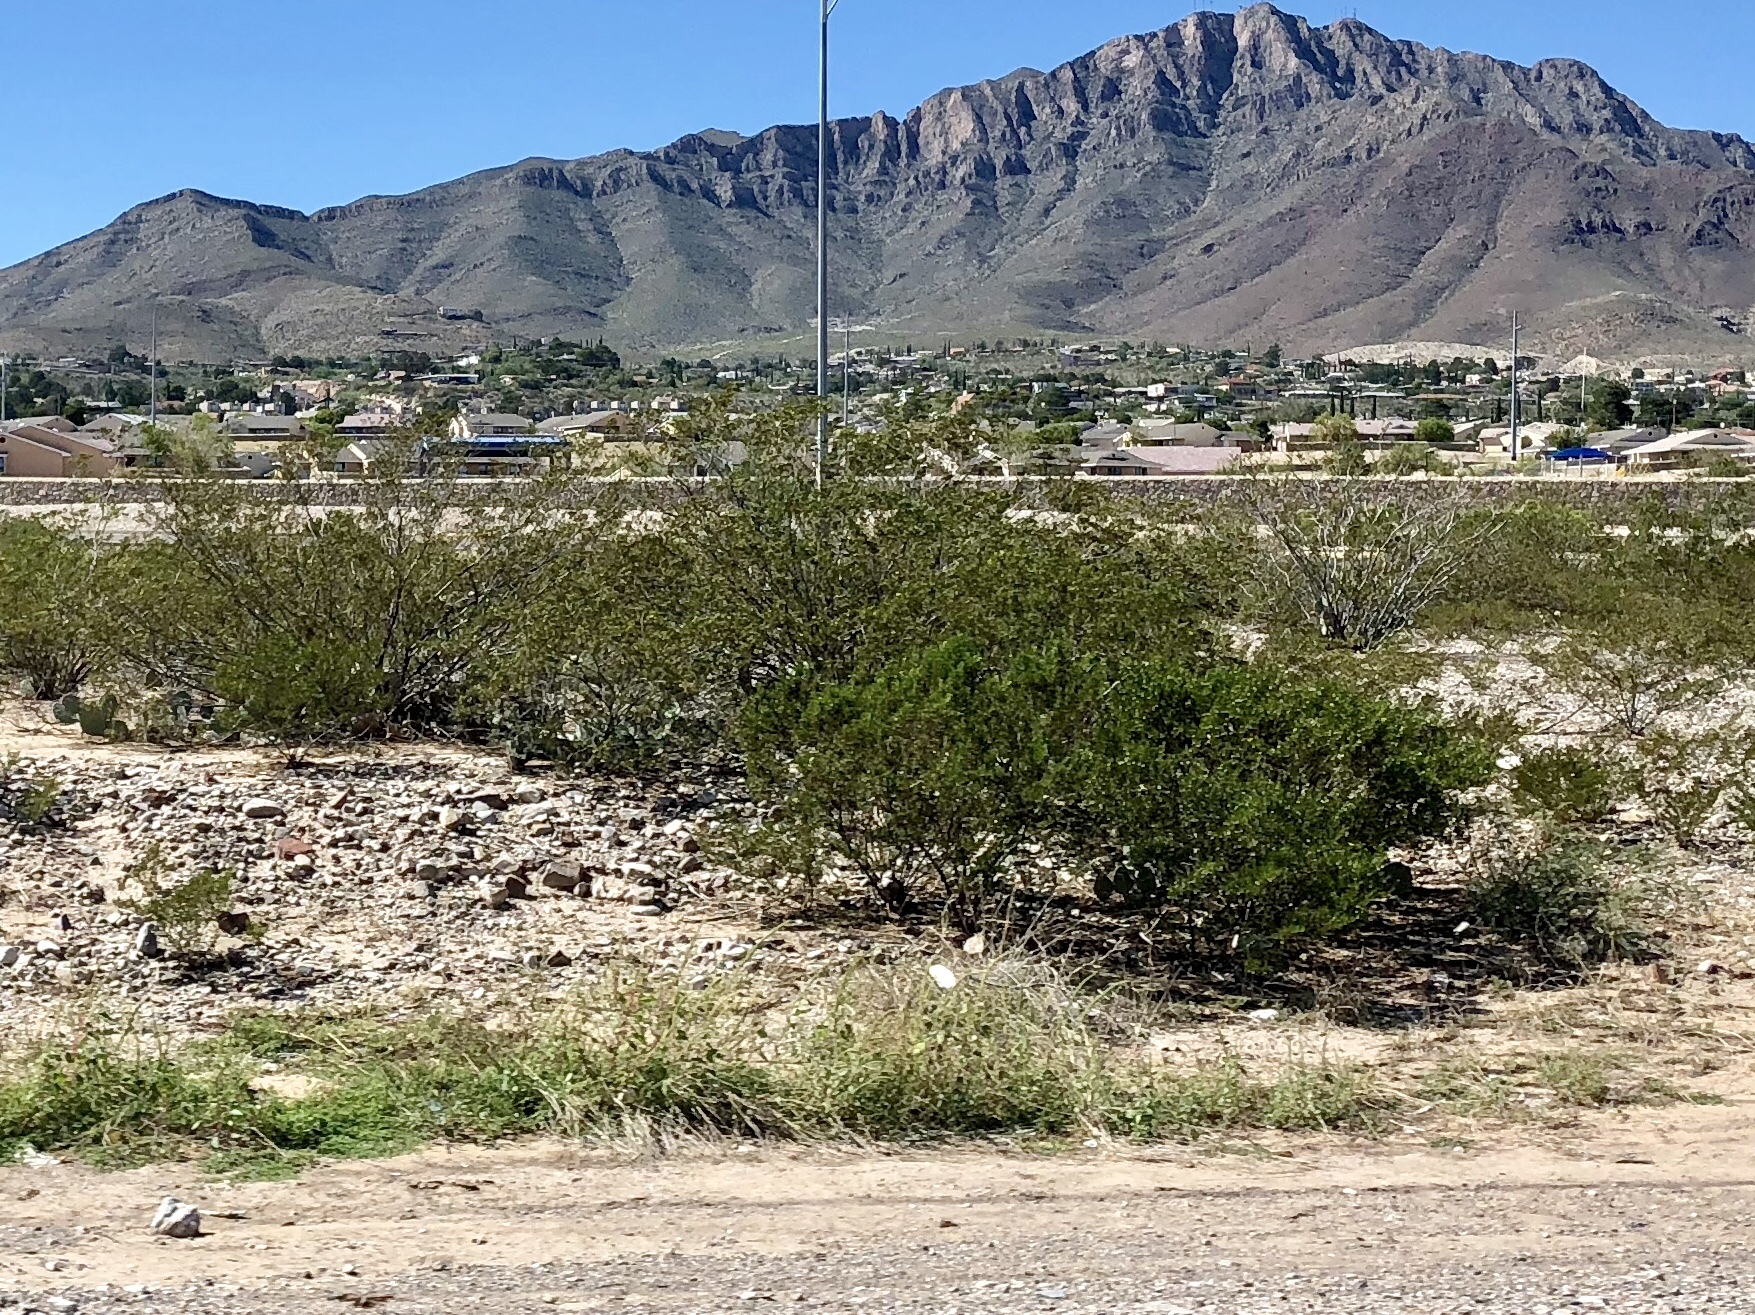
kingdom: Plantae
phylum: Tracheophyta
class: Magnoliopsida
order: Zygophyllales
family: Zygophyllaceae
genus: Larrea
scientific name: Larrea tridentata
